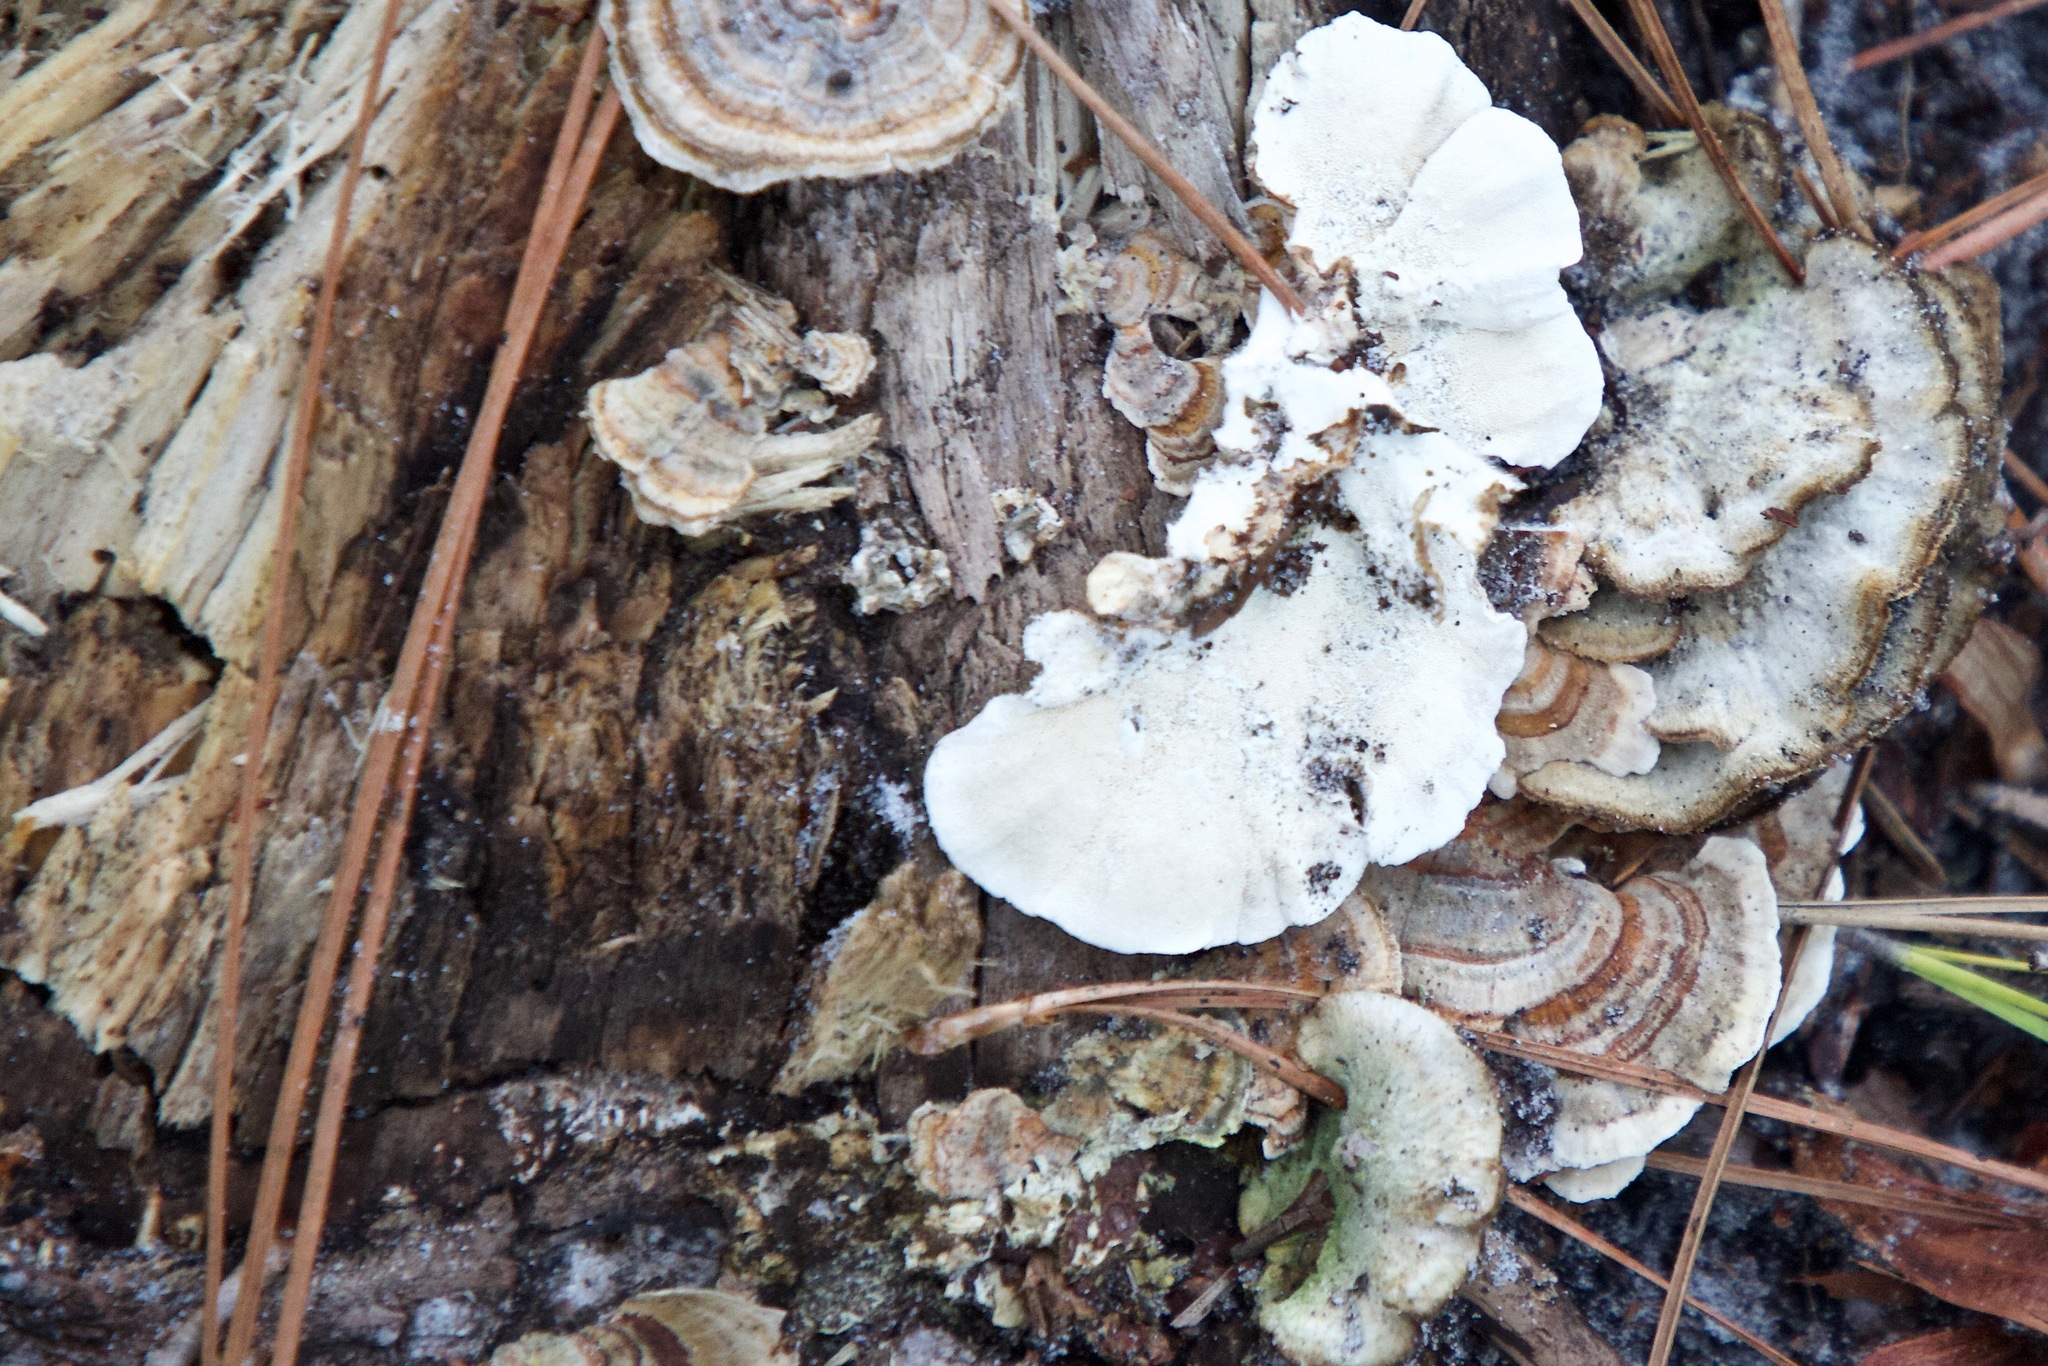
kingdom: Fungi
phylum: Basidiomycota
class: Agaricomycetes
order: Polyporales
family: Polyporaceae
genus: Trametes
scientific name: Trametes versicolor
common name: Turkeytail
